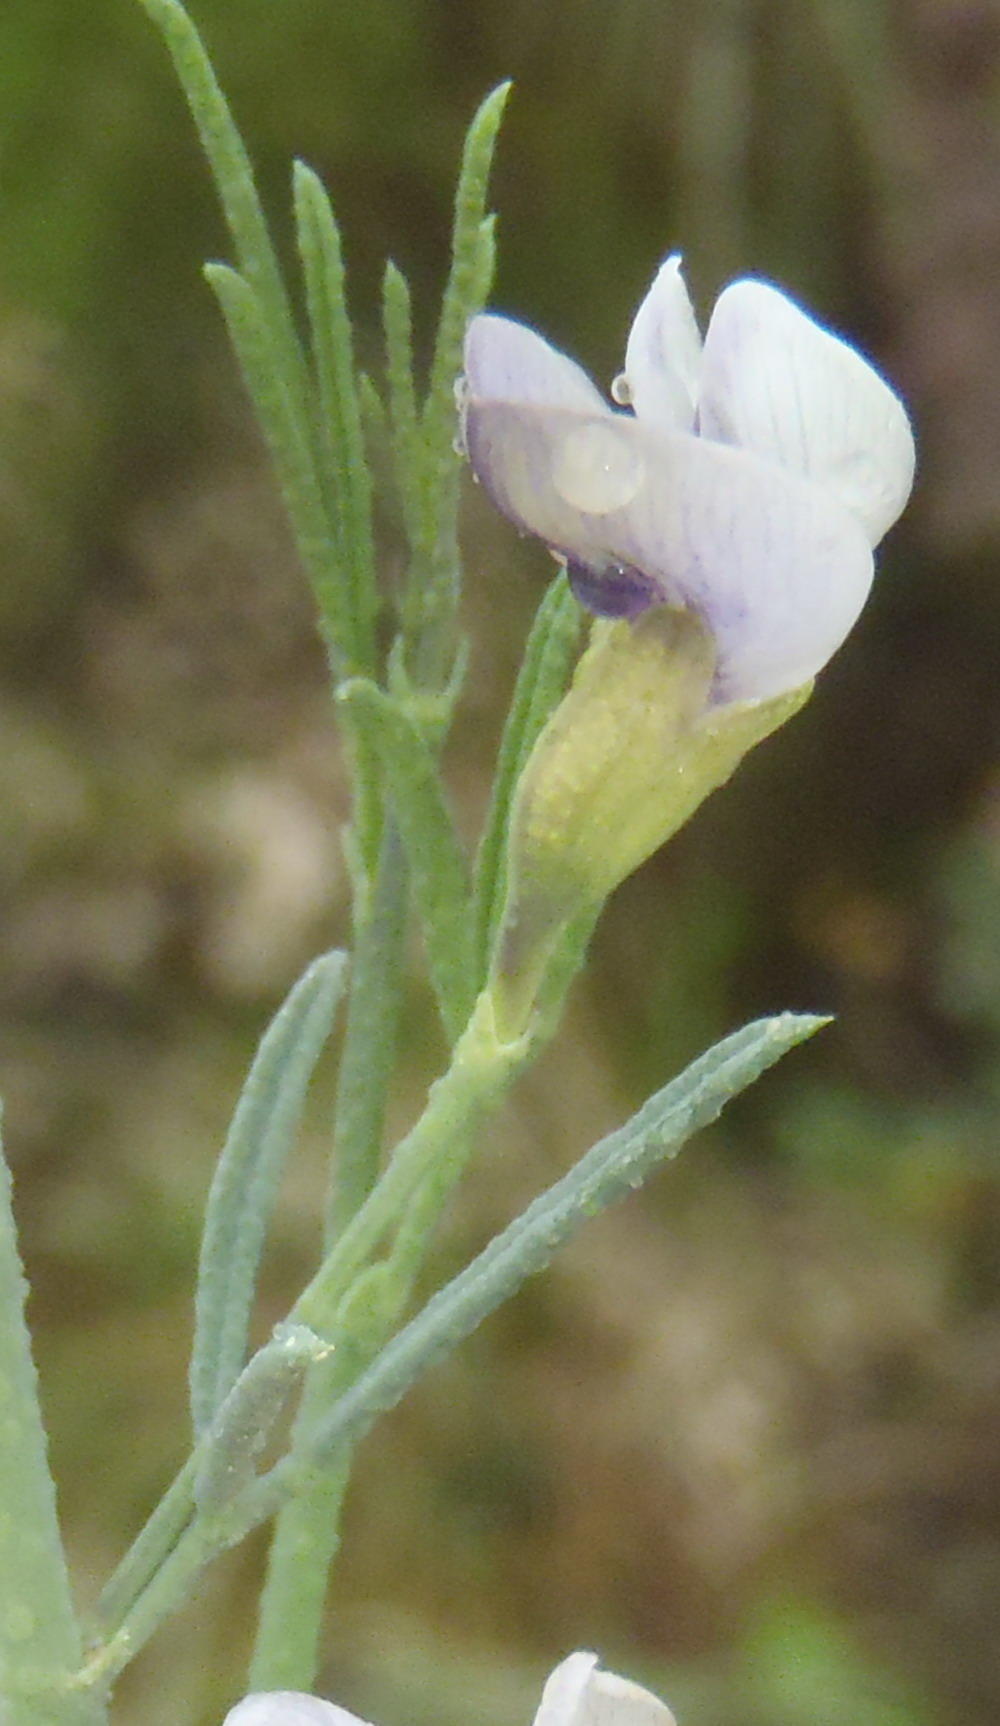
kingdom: Plantae
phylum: Tracheophyta
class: Magnoliopsida
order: Fabales
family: Fabaceae
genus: Psoralea
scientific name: Psoralea forbesiae
